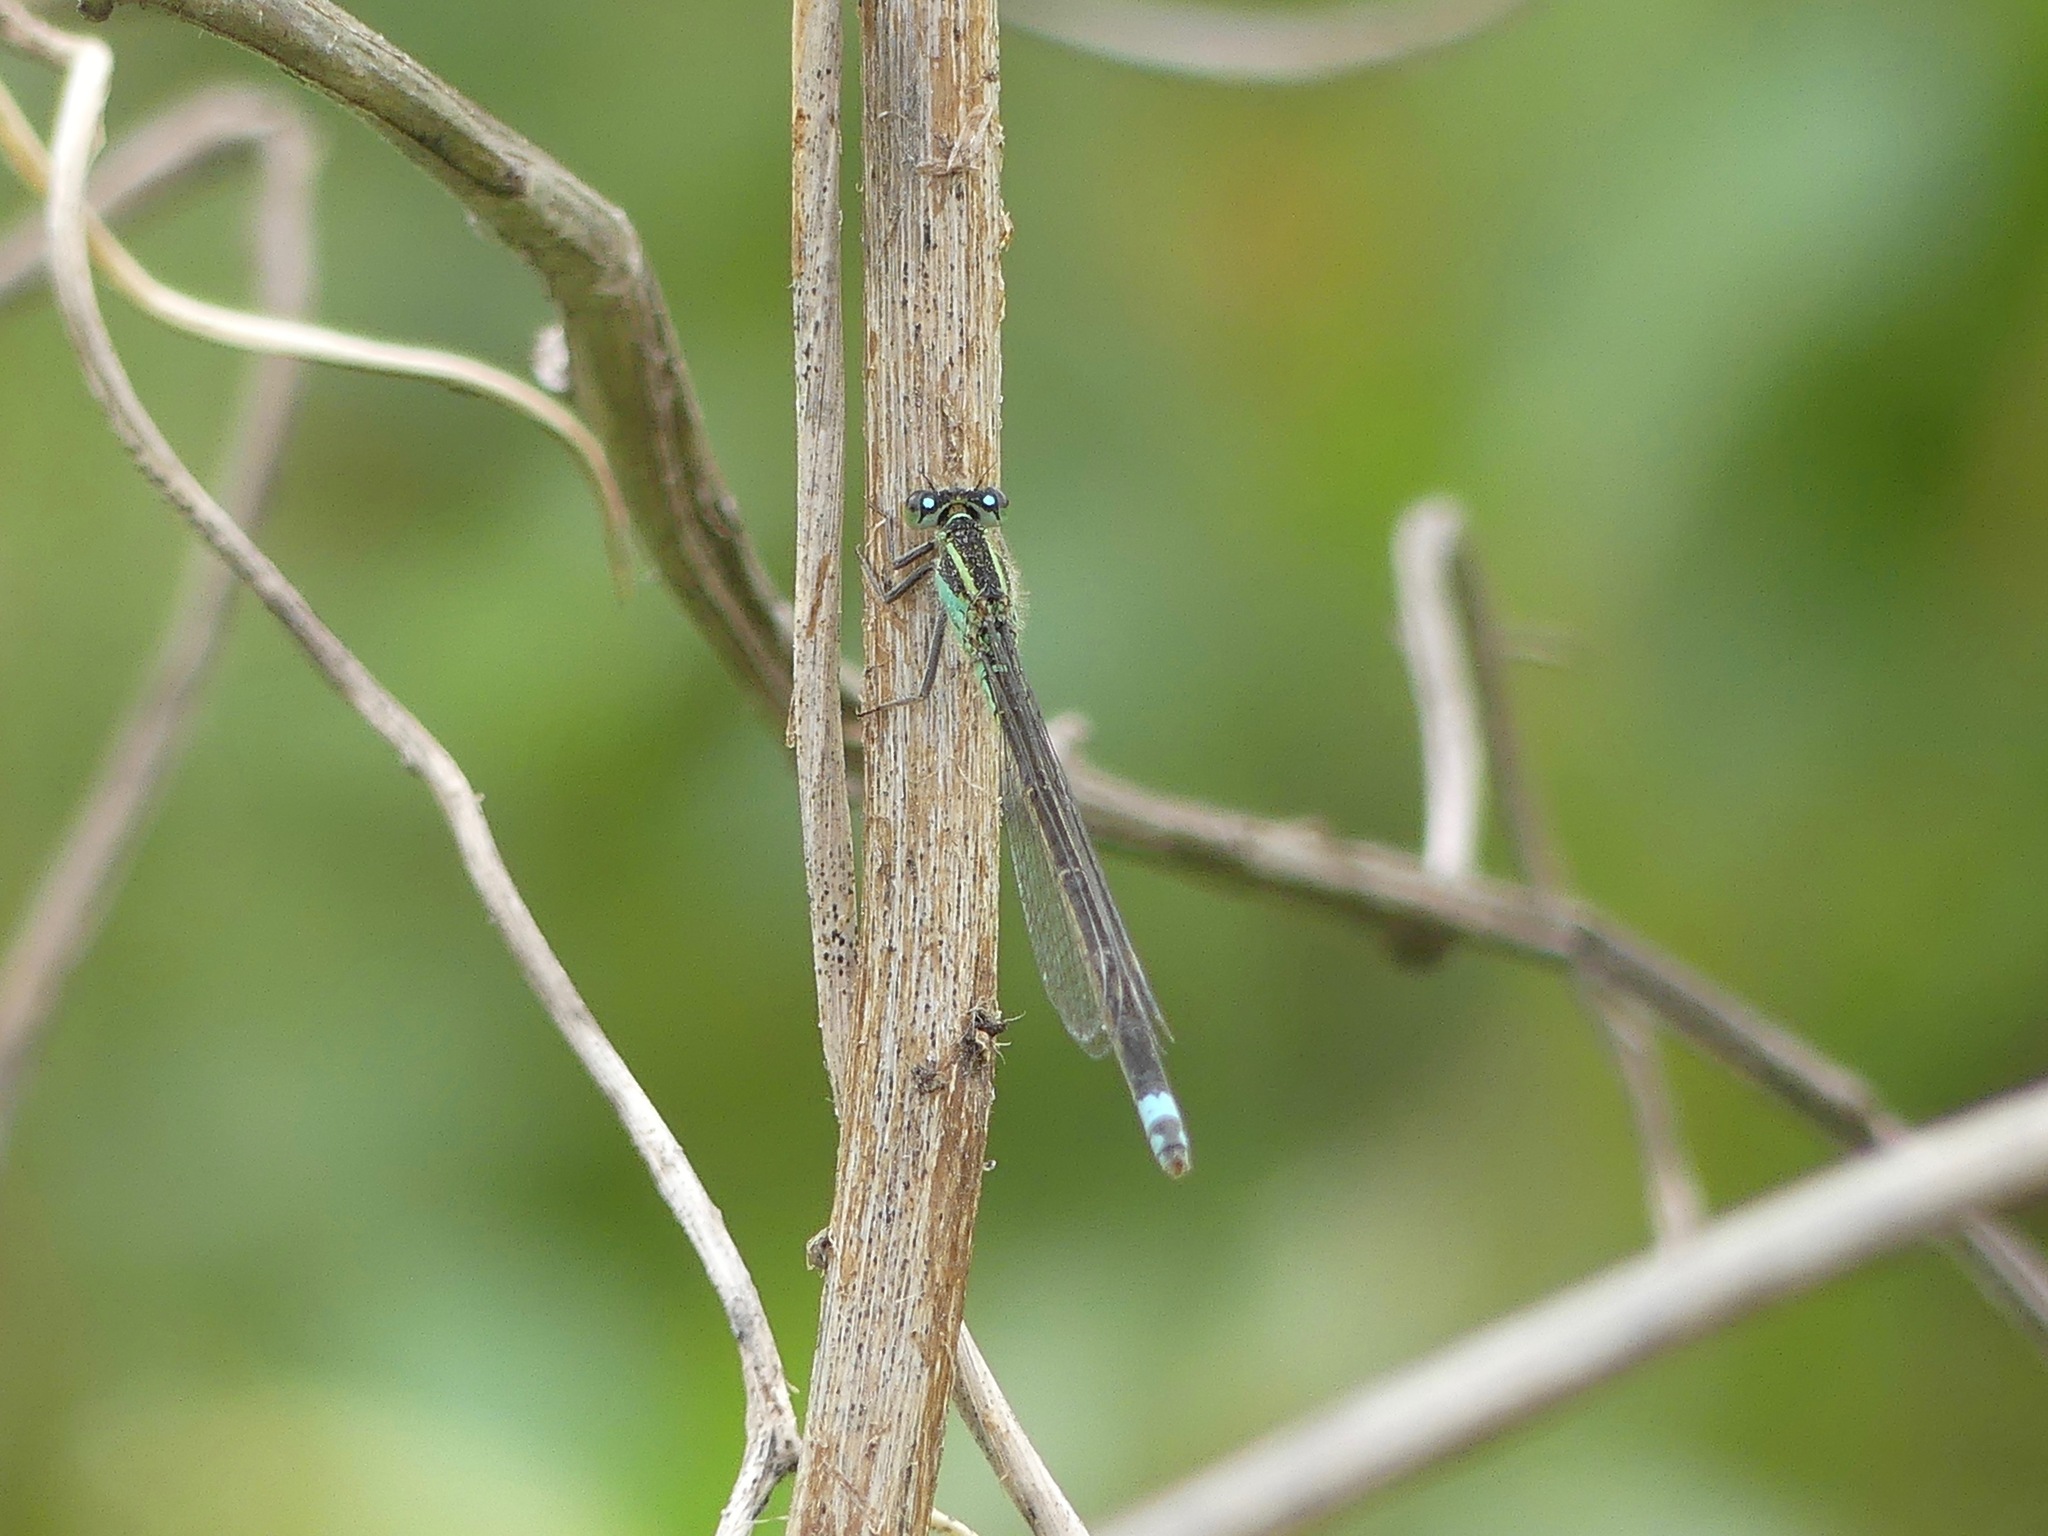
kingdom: Animalia
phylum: Arthropoda
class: Insecta
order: Odonata
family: Coenagrionidae
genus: Ischnura
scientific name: Ischnura ramburii
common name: Rambur's forktail
